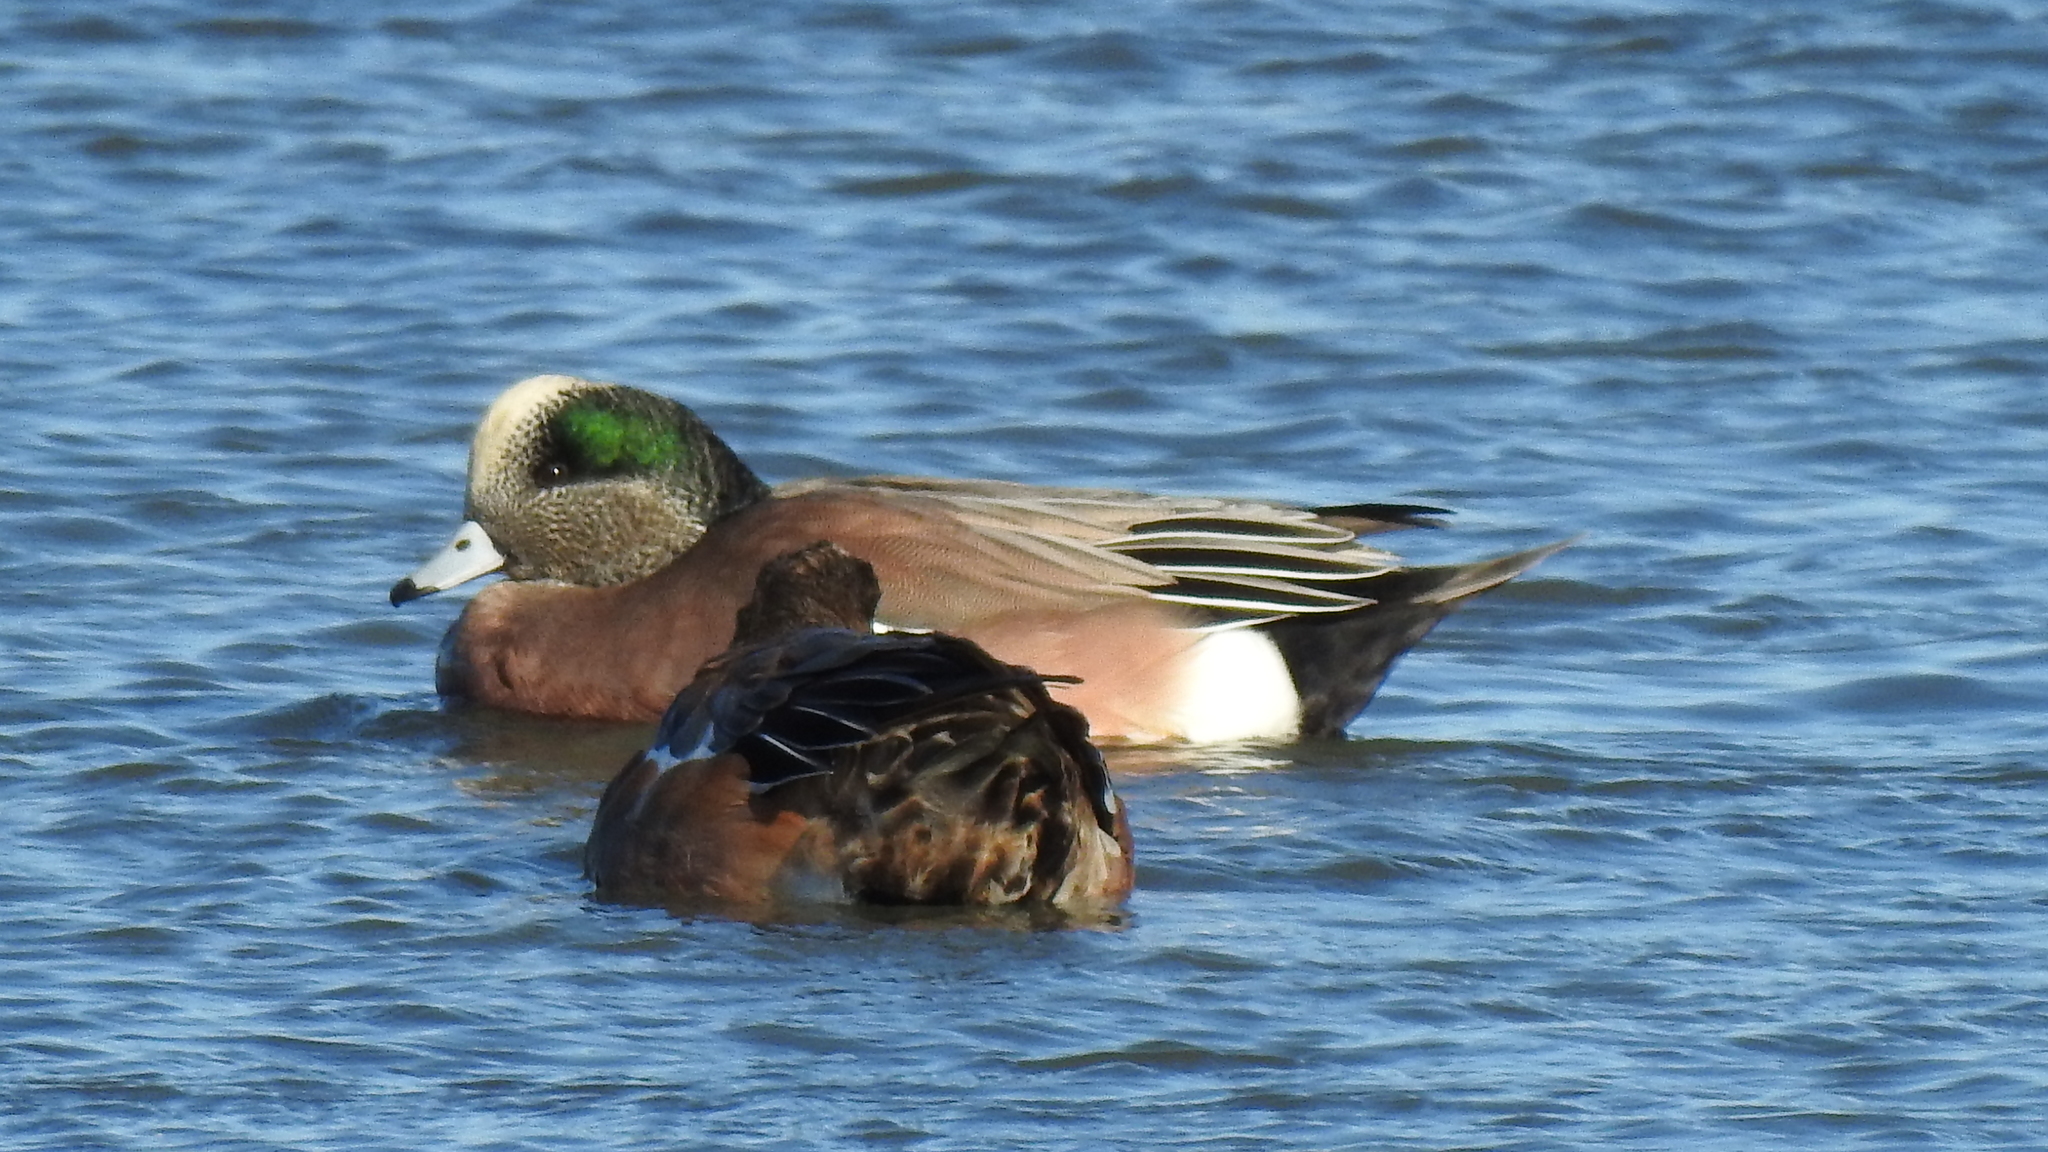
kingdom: Animalia
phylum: Chordata
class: Aves
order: Anseriformes
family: Anatidae
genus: Mareca
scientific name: Mareca americana
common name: American wigeon
